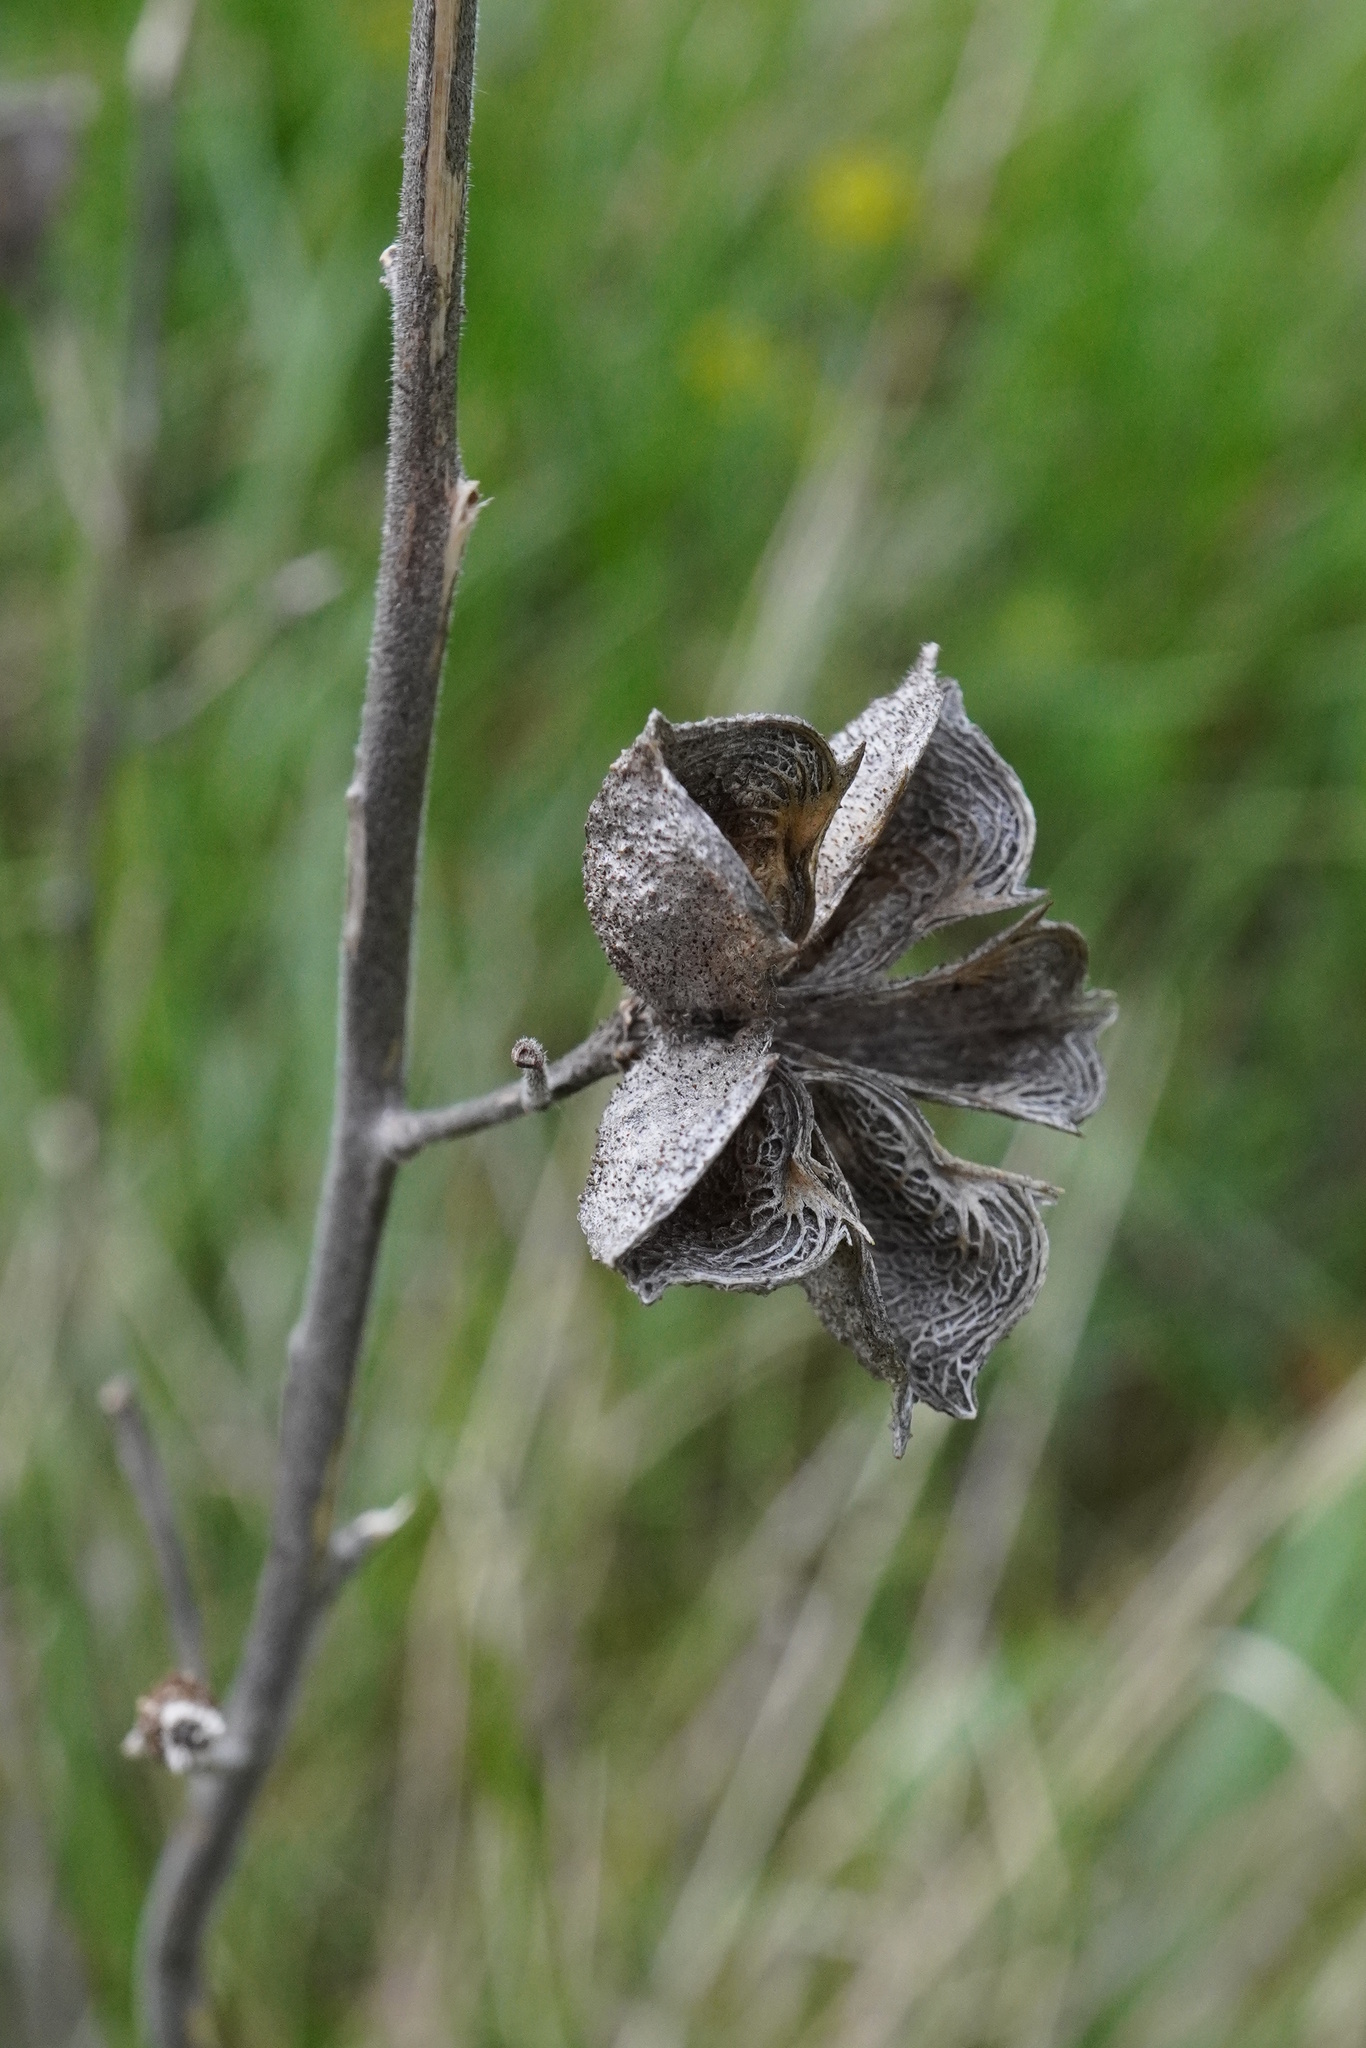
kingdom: Plantae
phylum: Tracheophyta
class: Magnoliopsida
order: Sapindales
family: Rutaceae
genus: Dictamnus
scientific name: Dictamnus albus
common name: Gasplant
